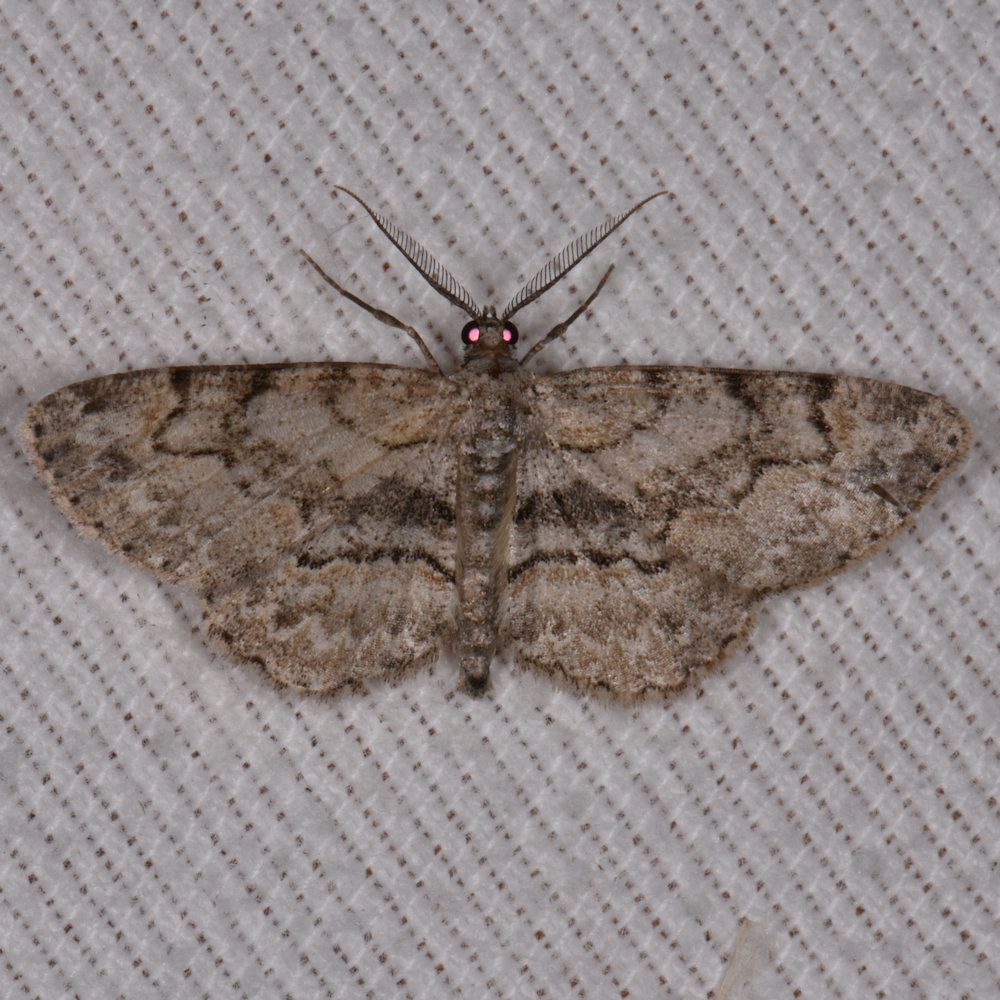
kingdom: Animalia
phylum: Arthropoda
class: Insecta
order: Lepidoptera
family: Geometridae
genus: Iridopsis
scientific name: Iridopsis ephyraria
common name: Pale-winged gray
